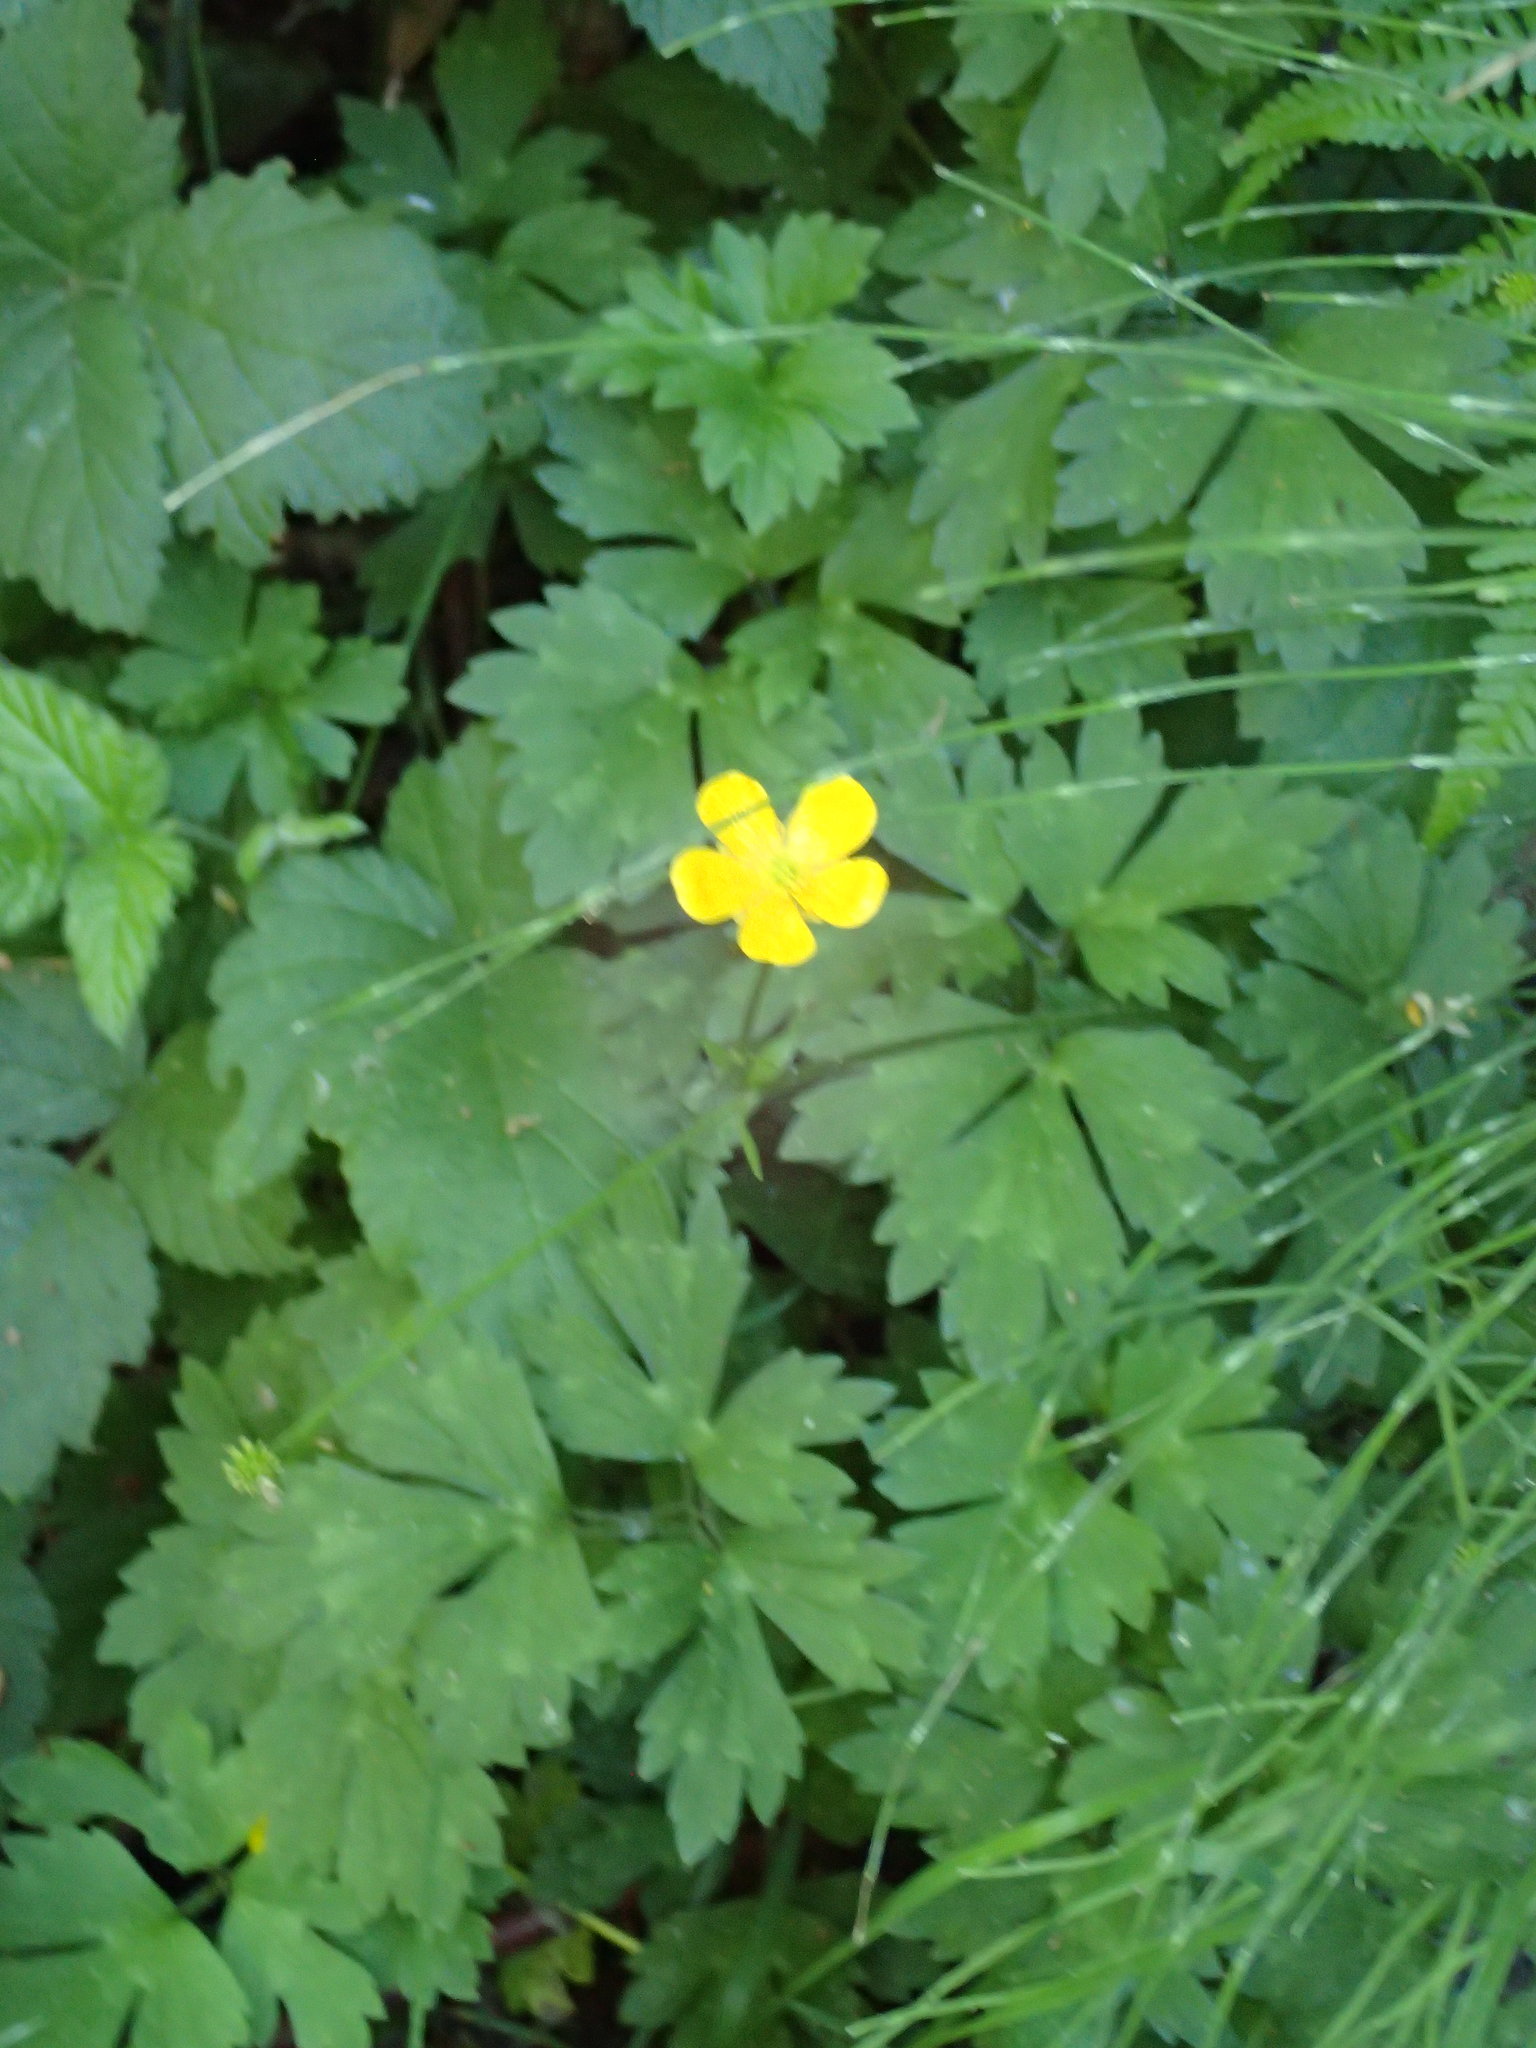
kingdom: Plantae
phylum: Tracheophyta
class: Magnoliopsida
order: Ranunculales
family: Ranunculaceae
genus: Ranunculus
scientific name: Ranunculus repens
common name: Creeping buttercup
